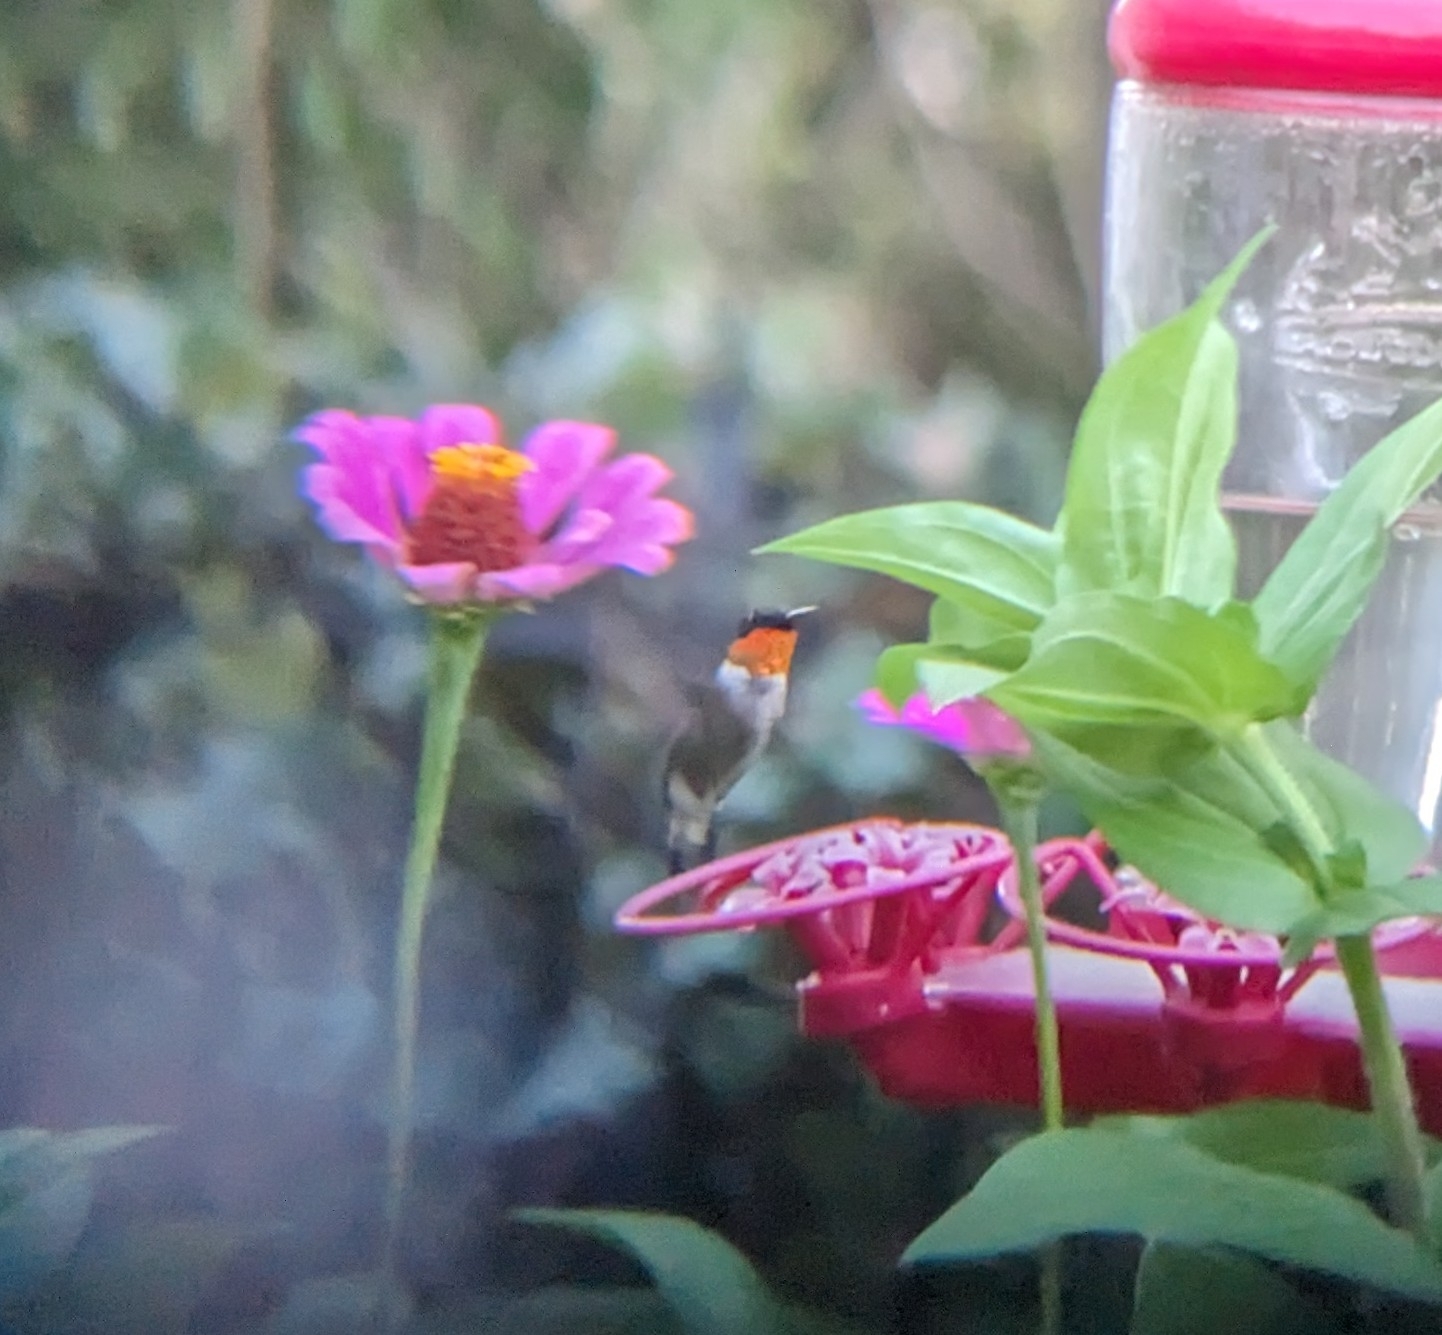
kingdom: Animalia
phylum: Chordata
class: Aves
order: Apodiformes
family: Trochilidae
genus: Archilochus
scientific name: Archilochus colubris
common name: Ruby-throated hummingbird
